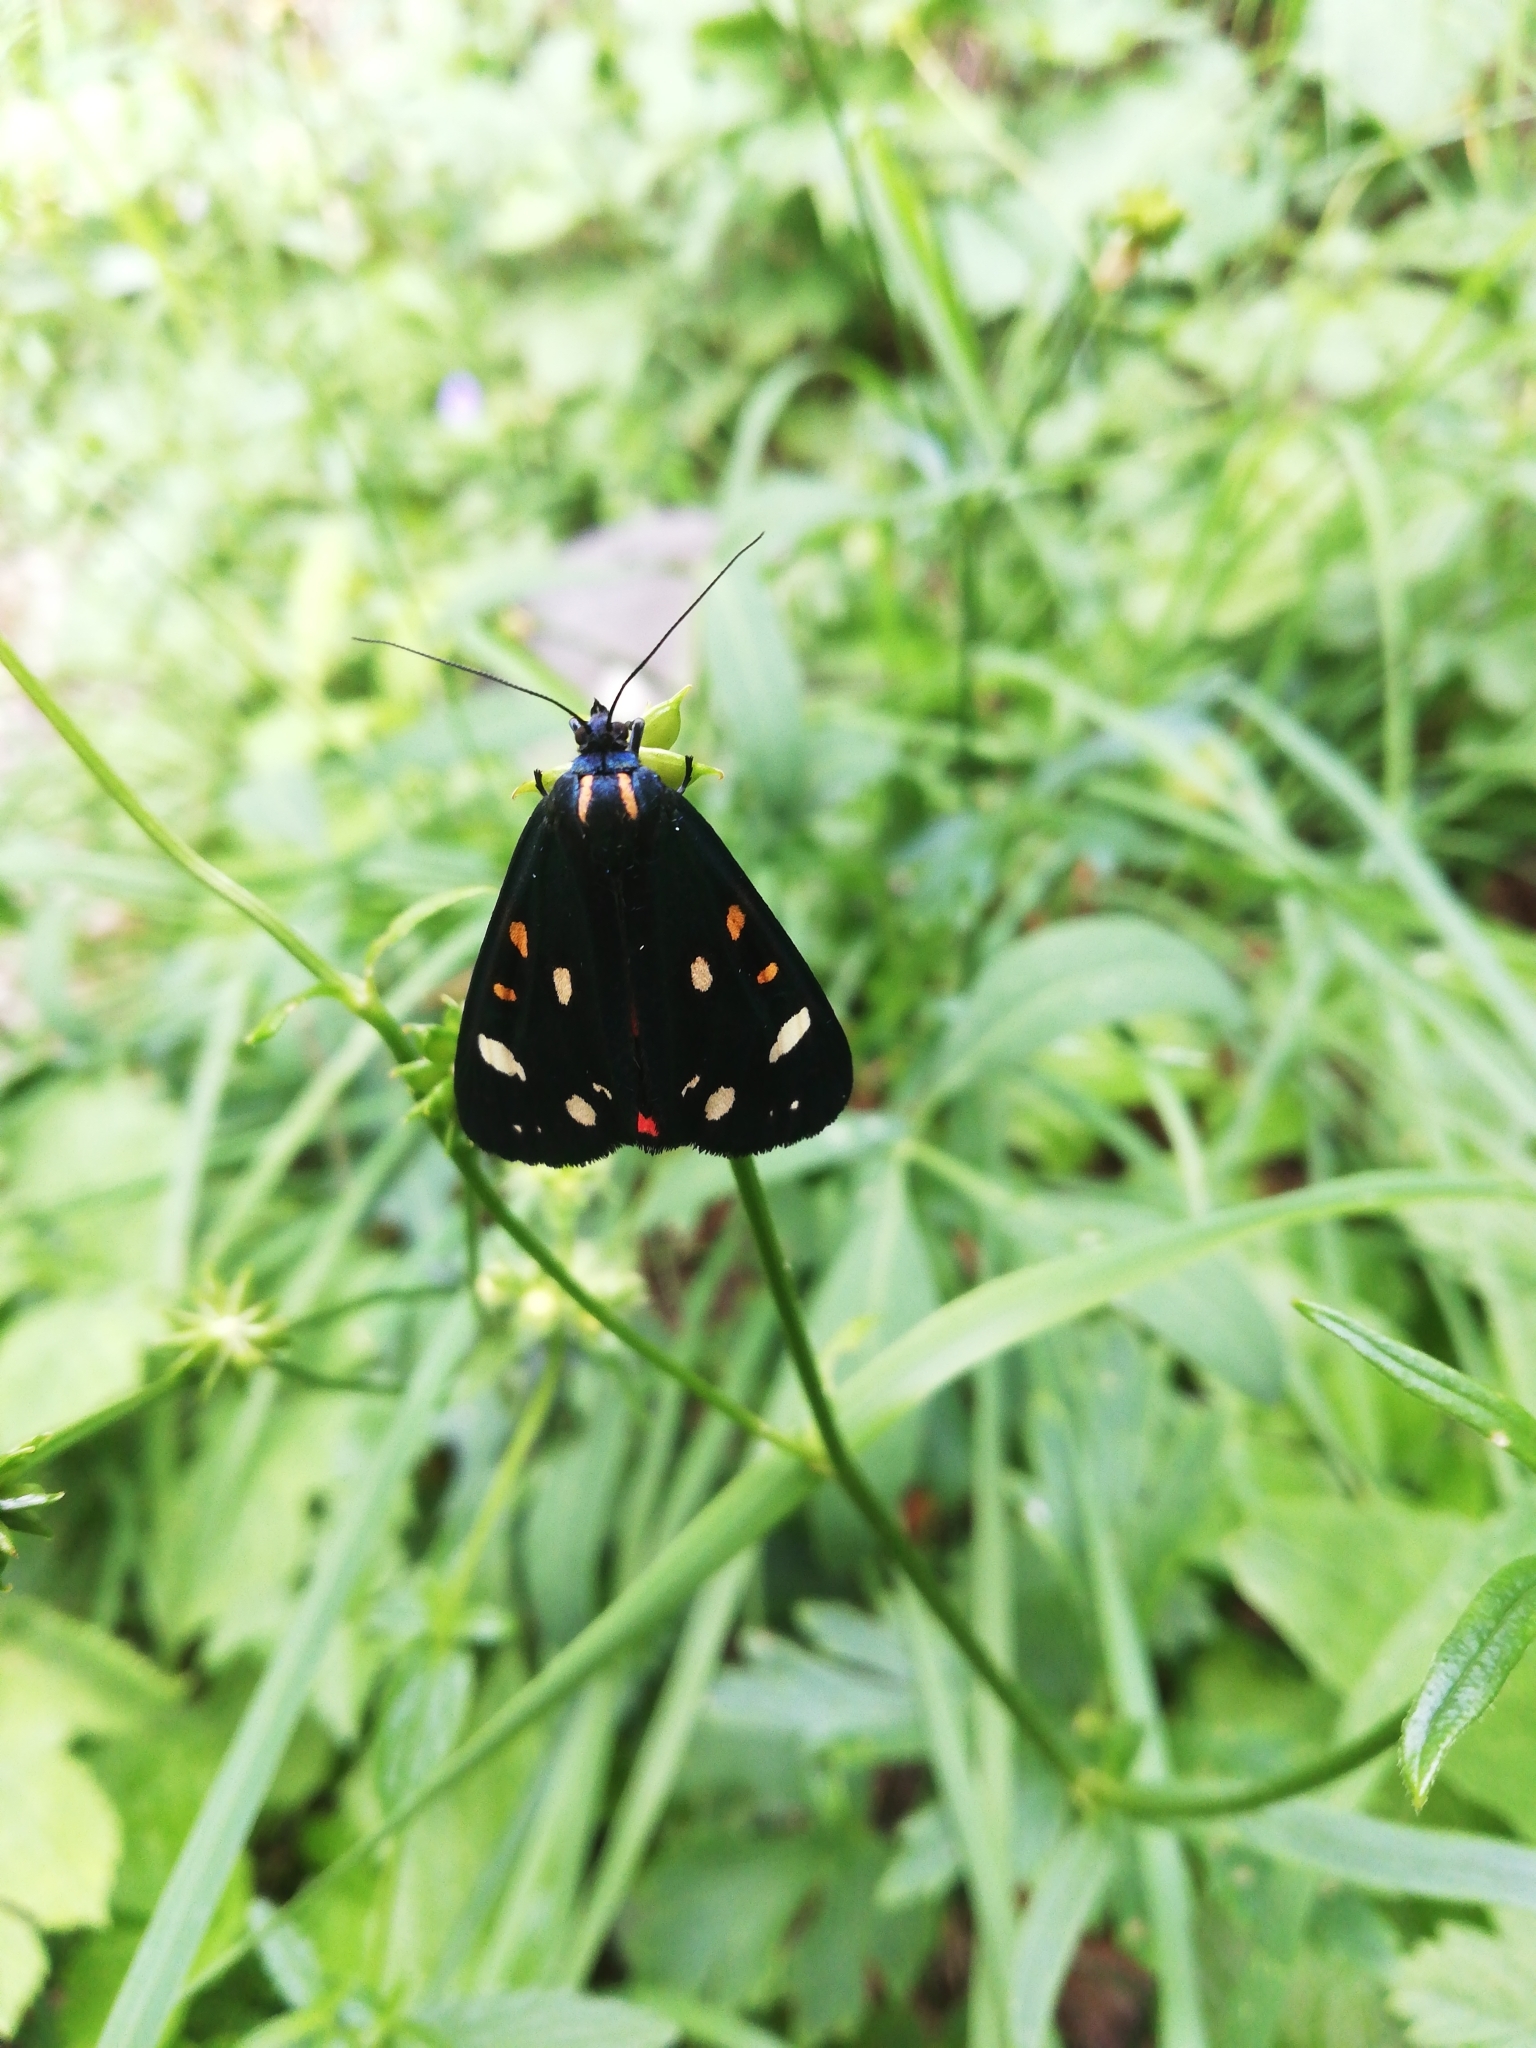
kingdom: Animalia
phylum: Arthropoda
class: Insecta
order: Lepidoptera
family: Erebidae
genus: Callimorpha
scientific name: Callimorpha dominula
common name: Scarlet tiger
